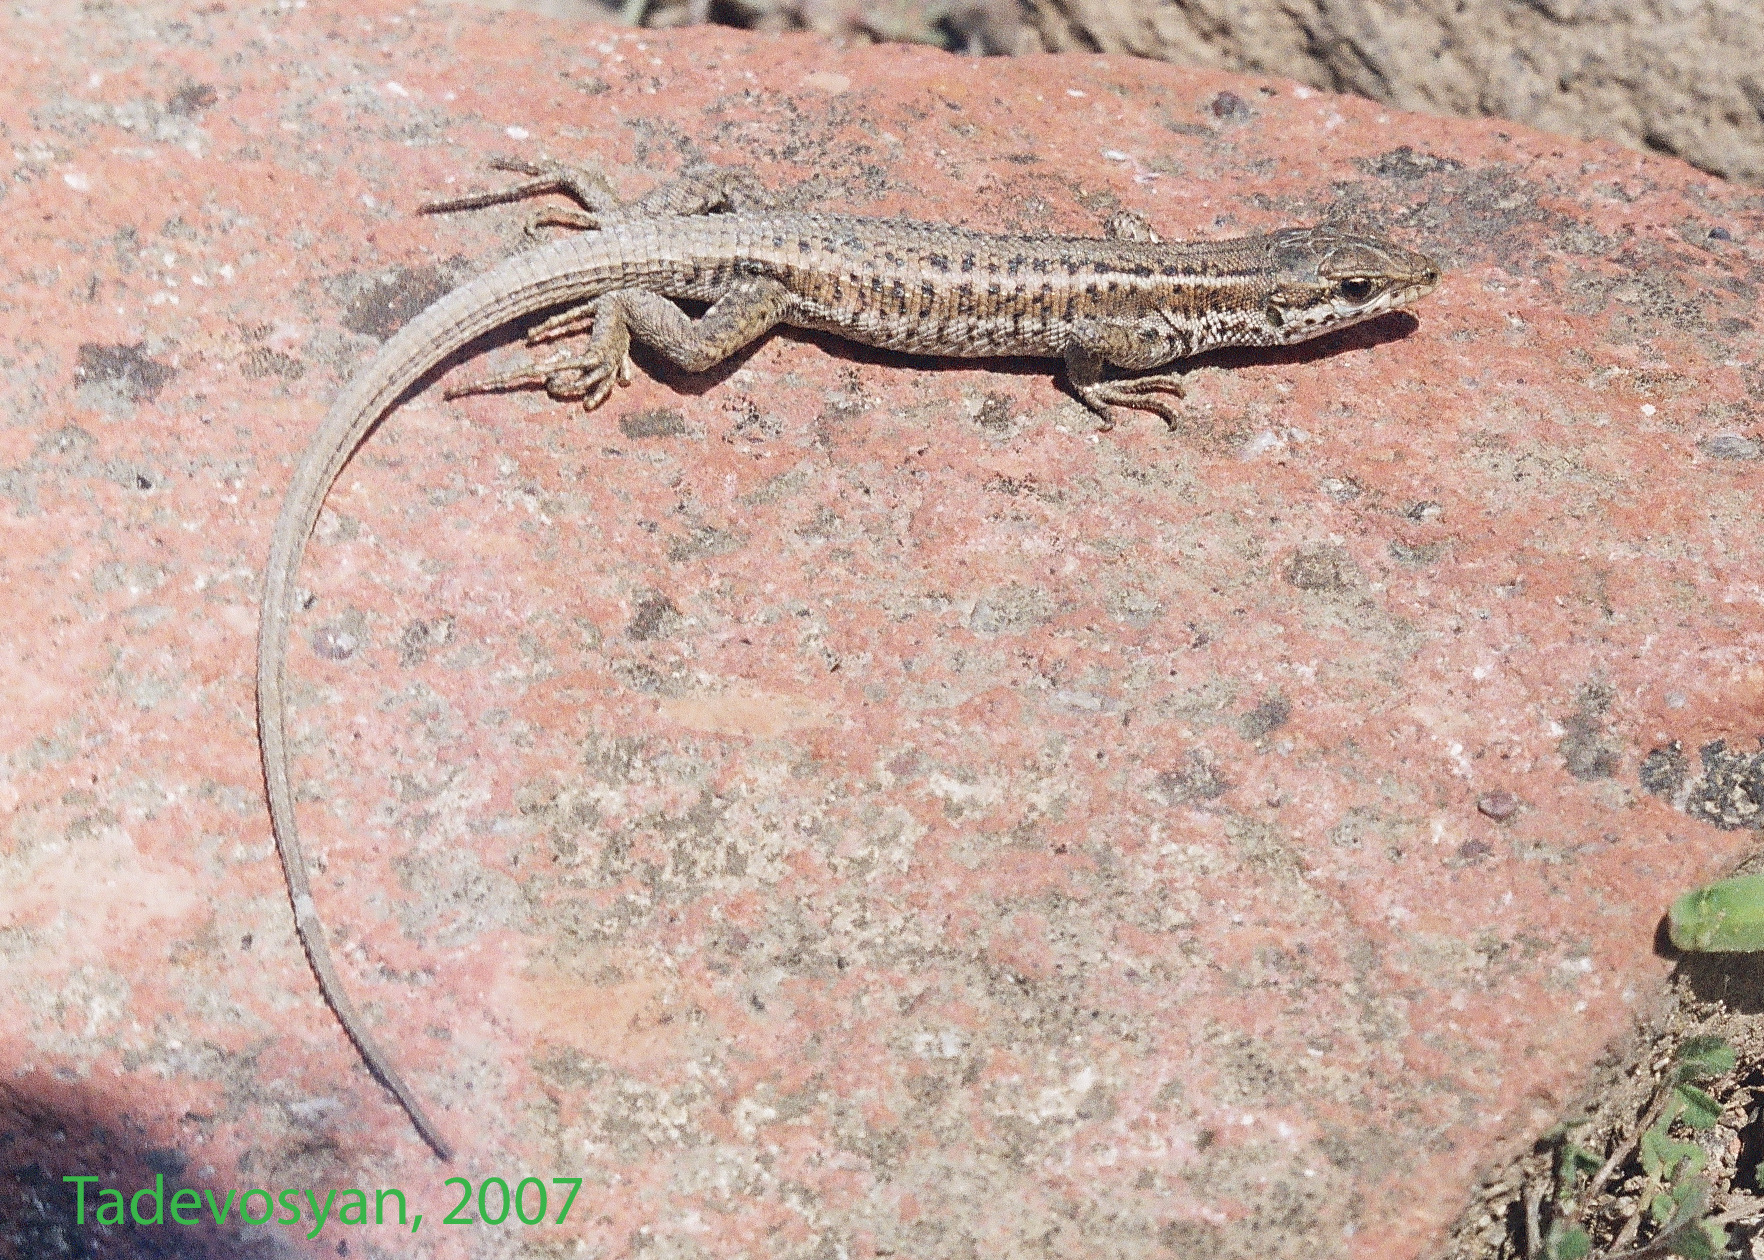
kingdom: Animalia
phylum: Chordata
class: Squamata
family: Lacertidae
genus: Ophisops
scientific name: Ophisops elegans
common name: Snake-eyed lizard
